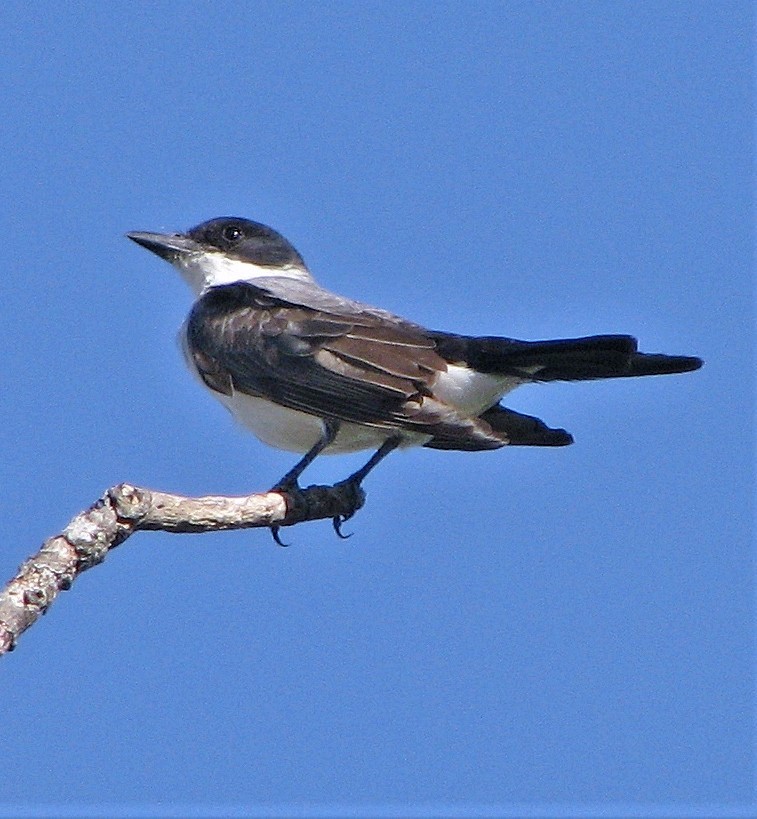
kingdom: Animalia
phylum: Chordata
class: Aves
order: Passeriformes
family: Tyrannidae
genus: Tyrannus
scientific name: Tyrannus savana
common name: Fork-tailed flycatcher
